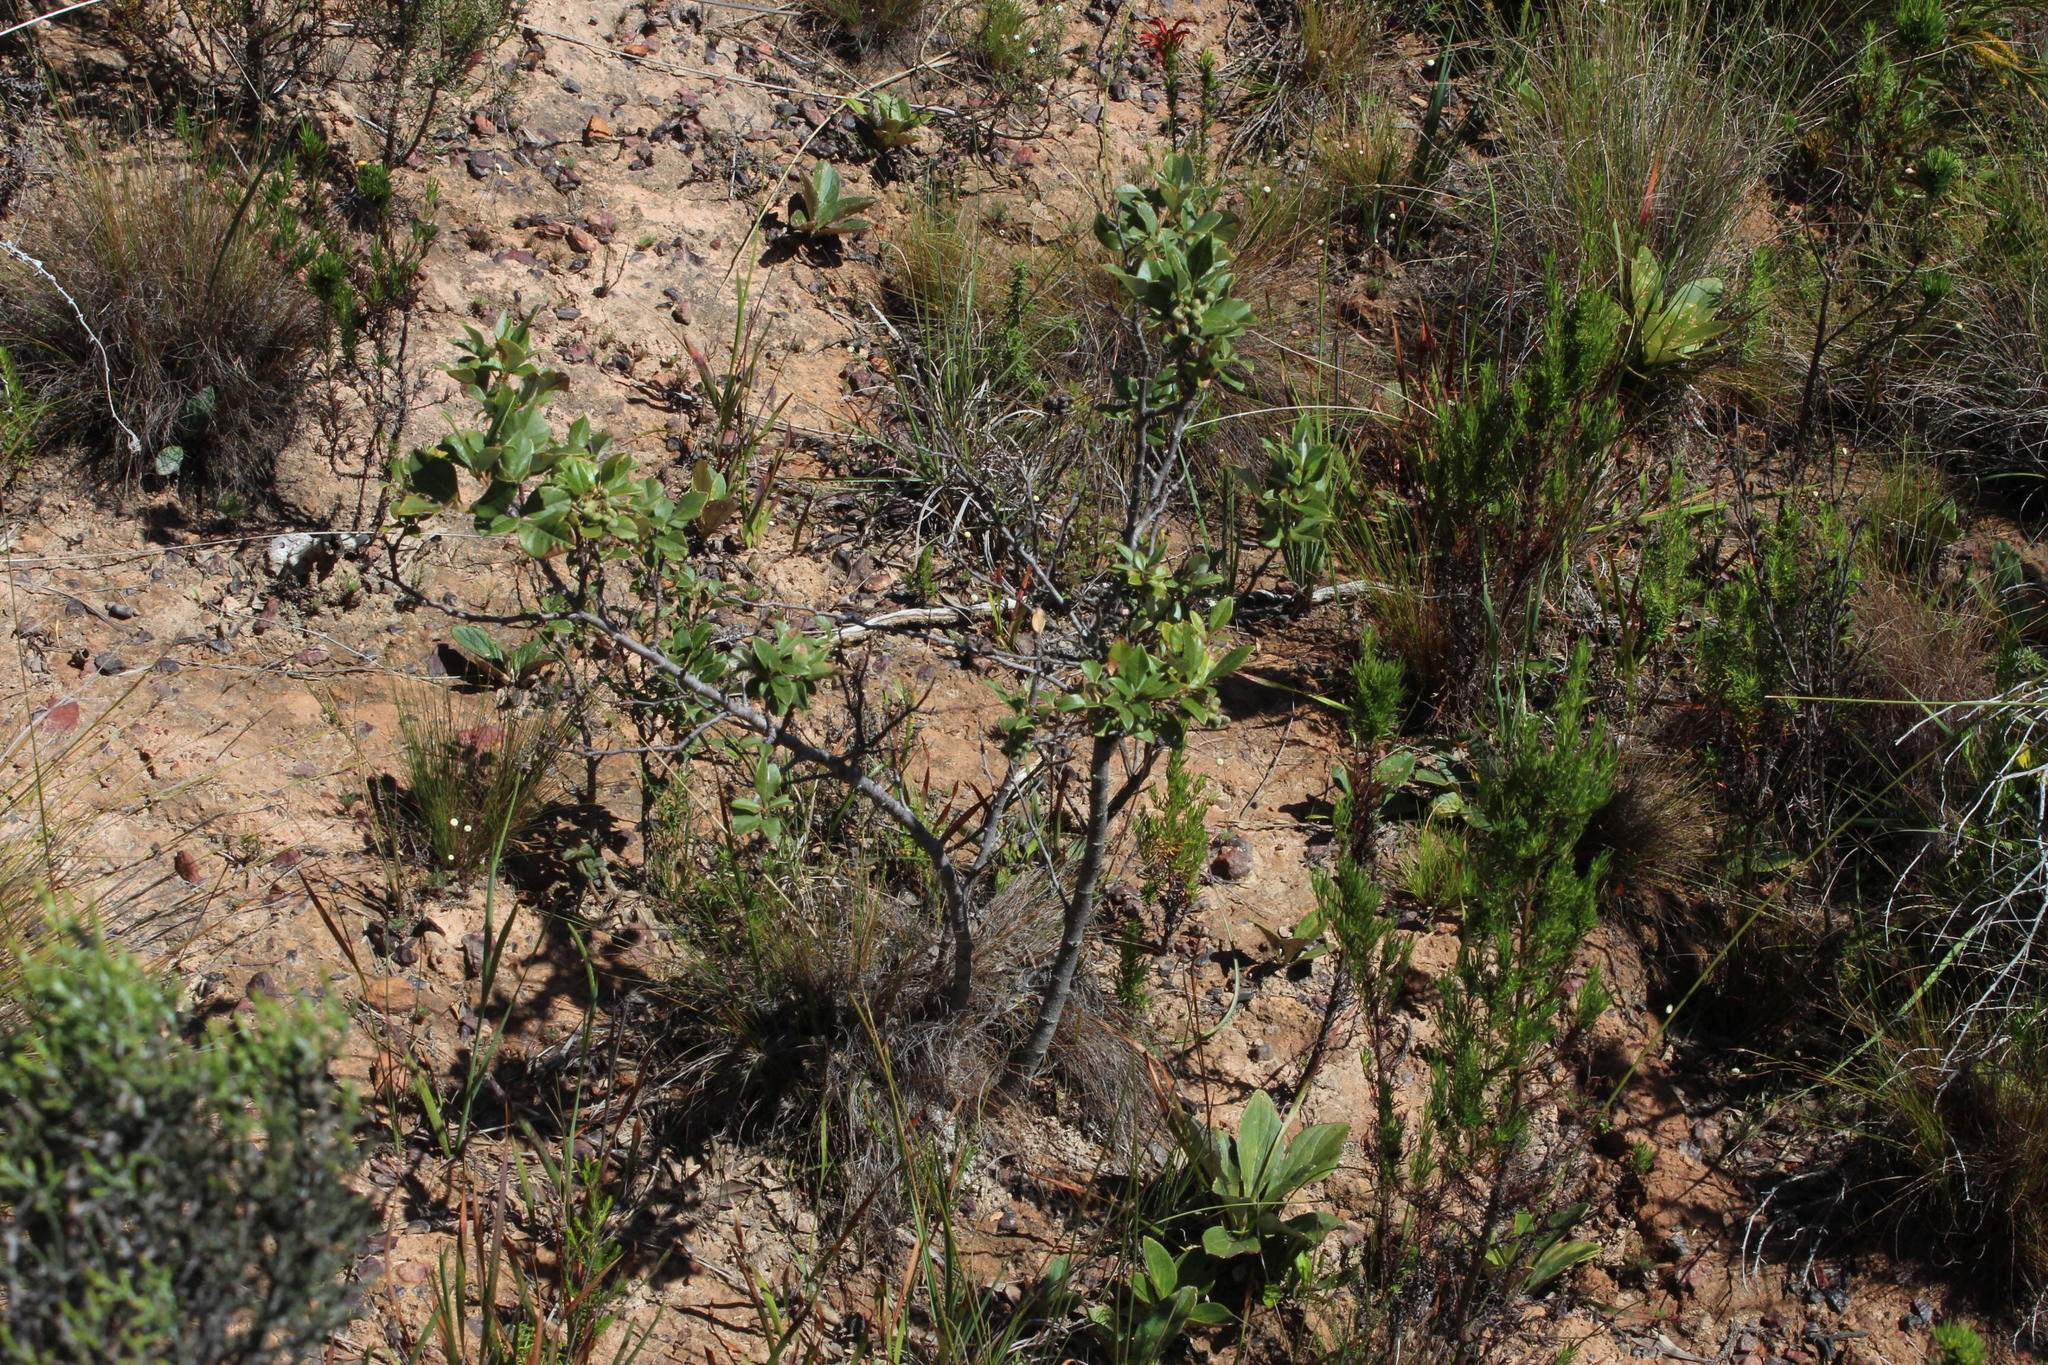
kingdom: Plantae
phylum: Tracheophyta
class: Magnoliopsida
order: Sapindales
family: Anacardiaceae
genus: Searsia
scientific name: Searsia tomentosa
